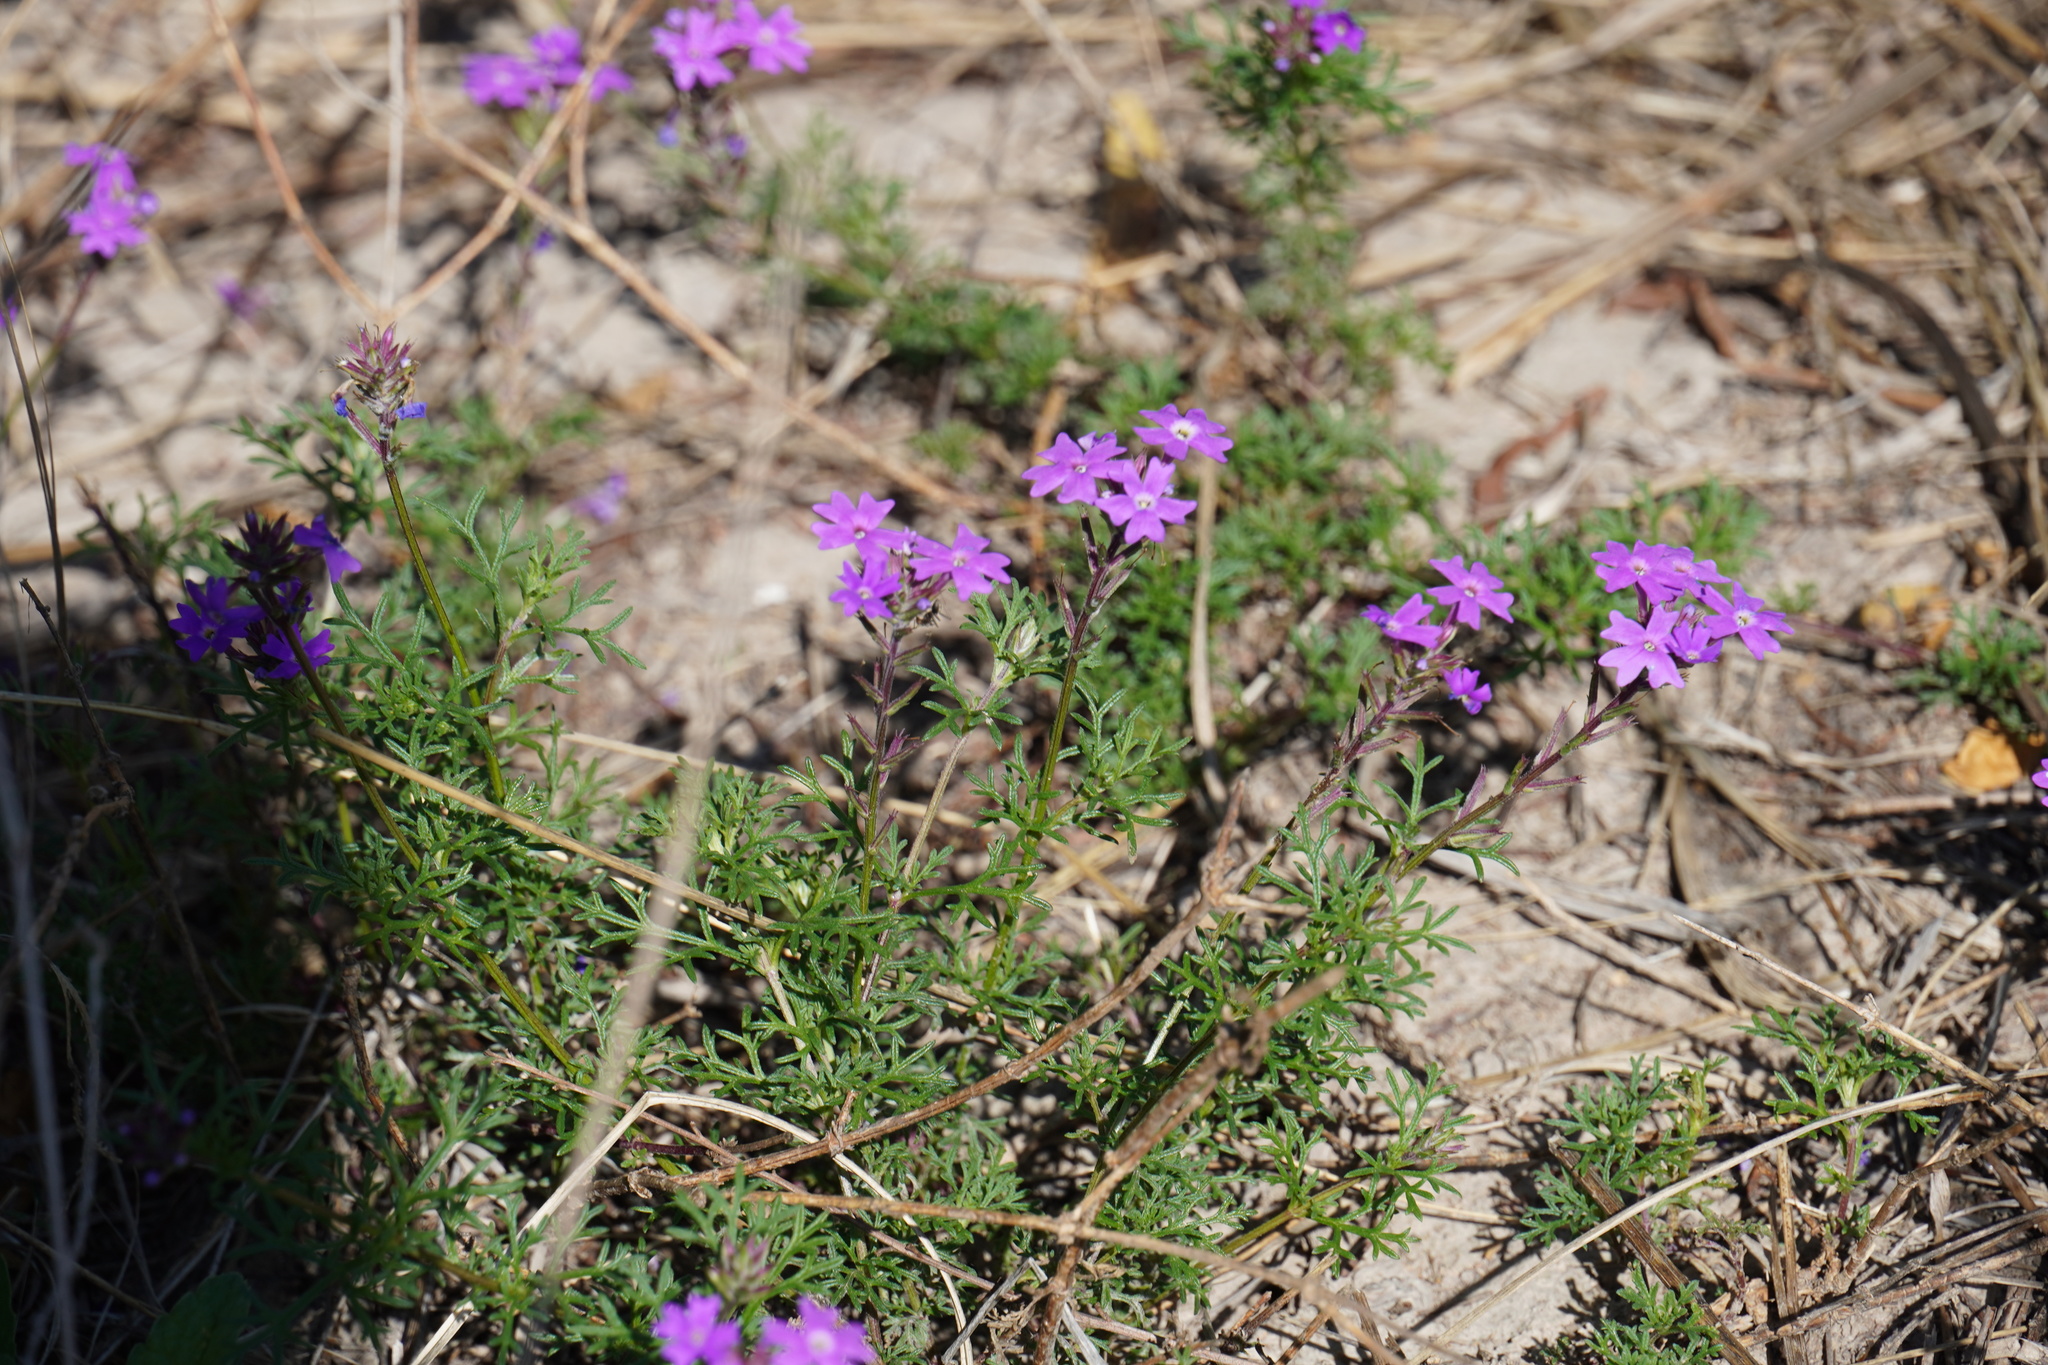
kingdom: Plantae
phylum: Tracheophyta
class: Magnoliopsida
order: Lamiales
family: Verbenaceae
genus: Verbena
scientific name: Verbena aristigera
